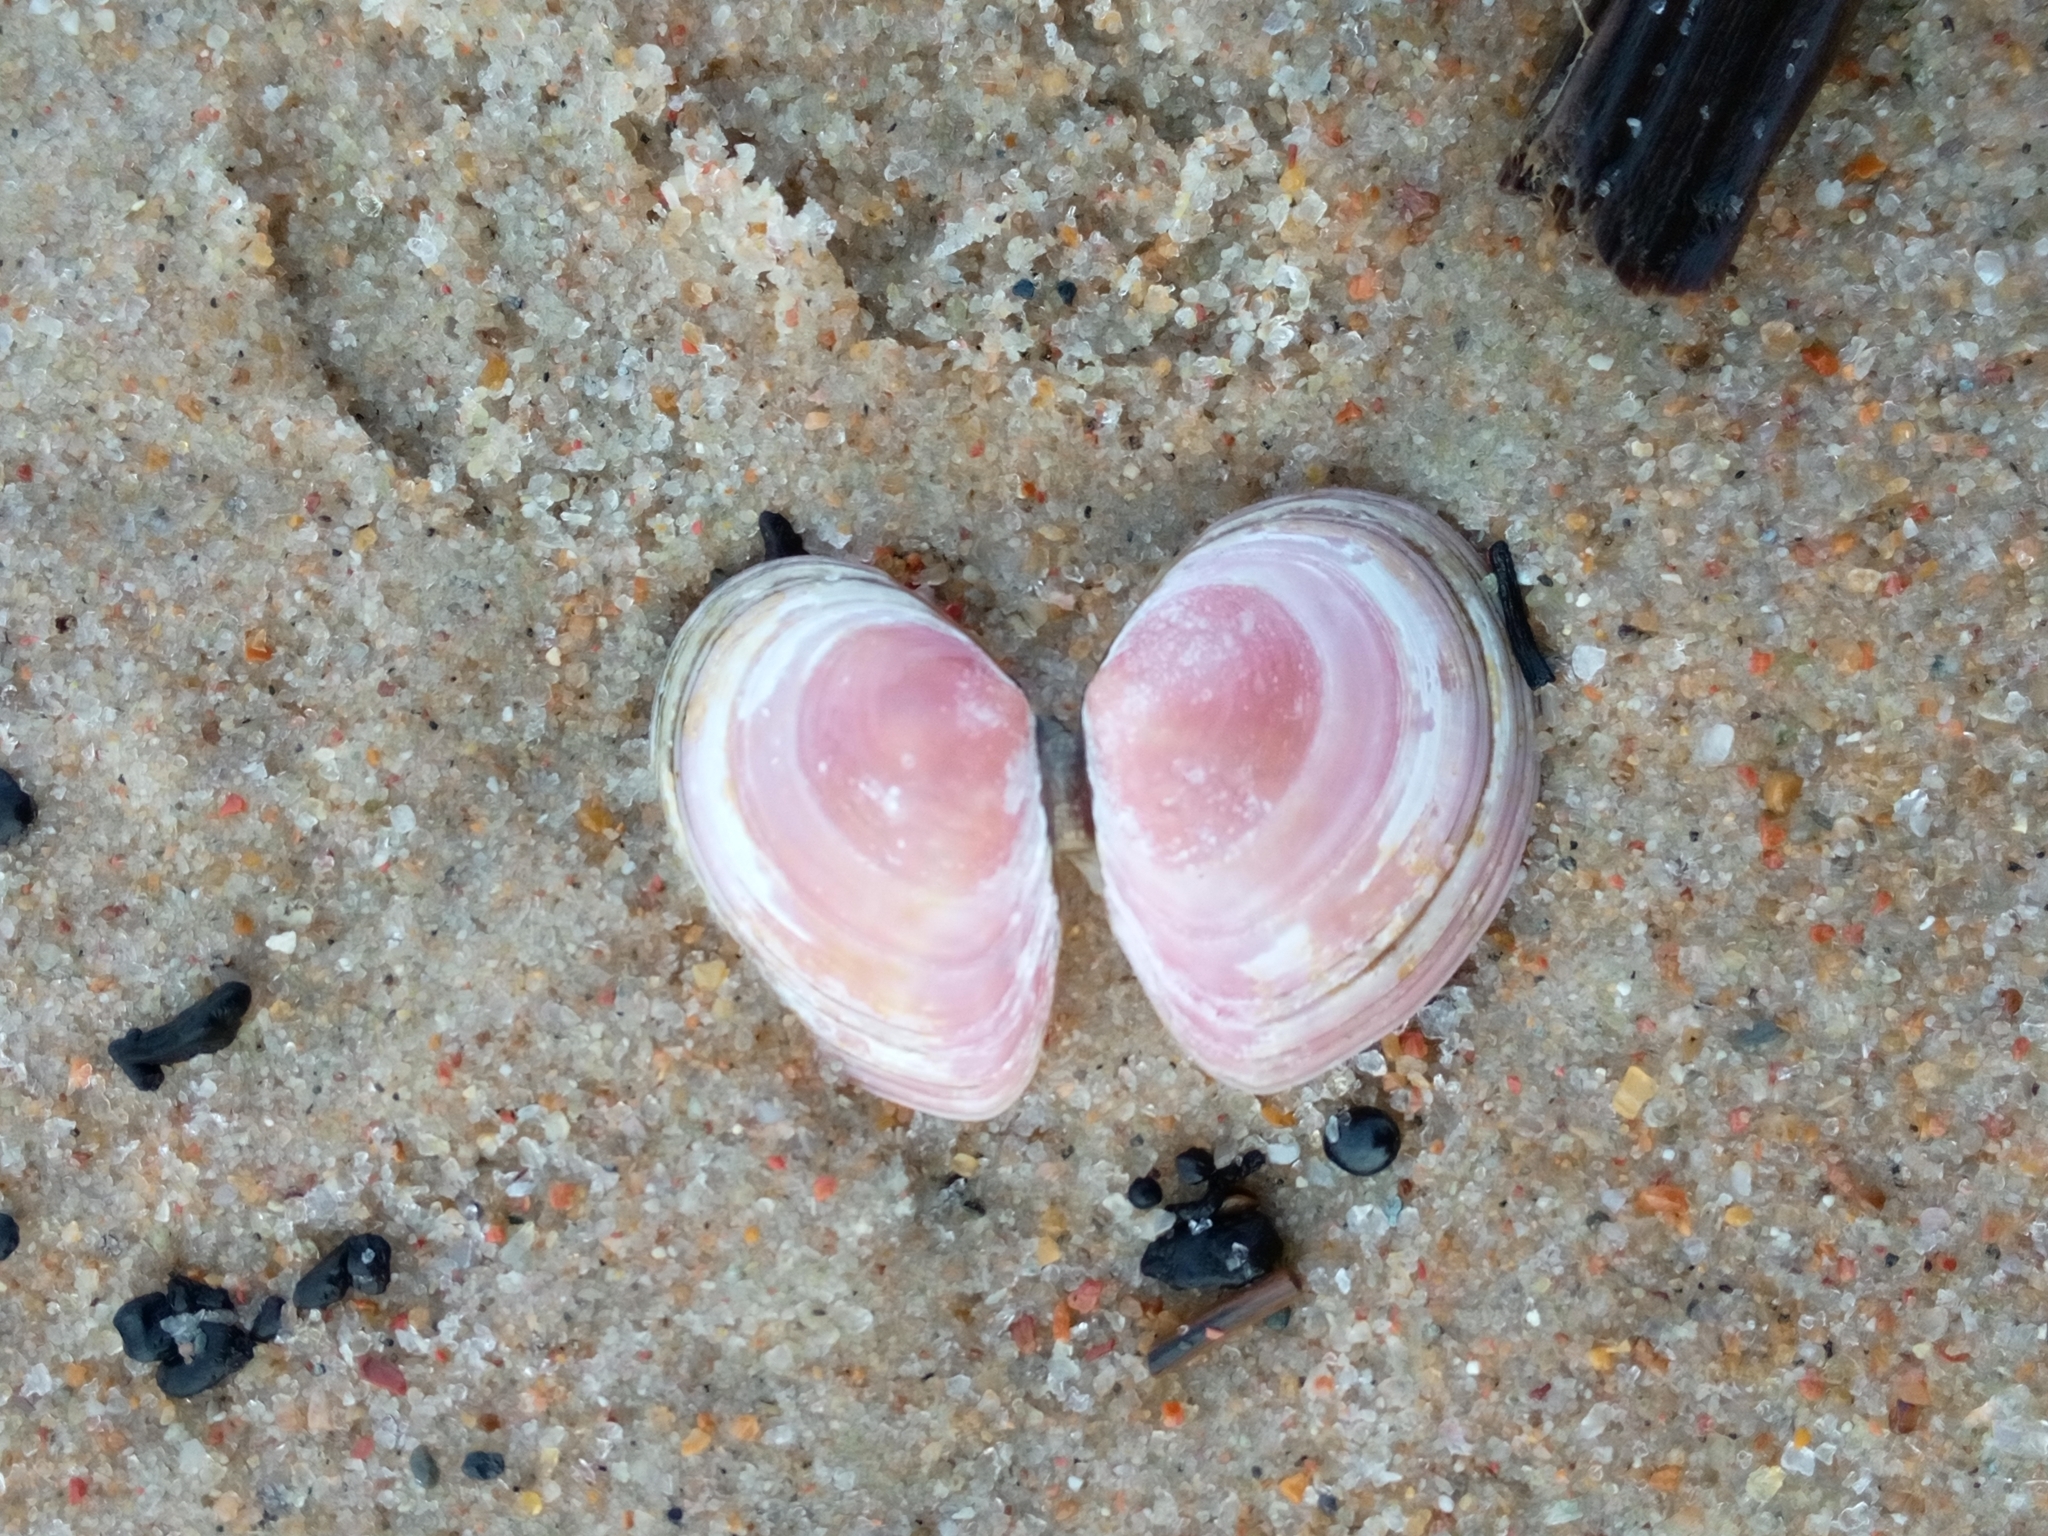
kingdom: Animalia
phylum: Mollusca
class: Bivalvia
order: Cardiida
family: Tellinidae
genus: Macoma
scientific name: Macoma balthica
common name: Baltic tellin
